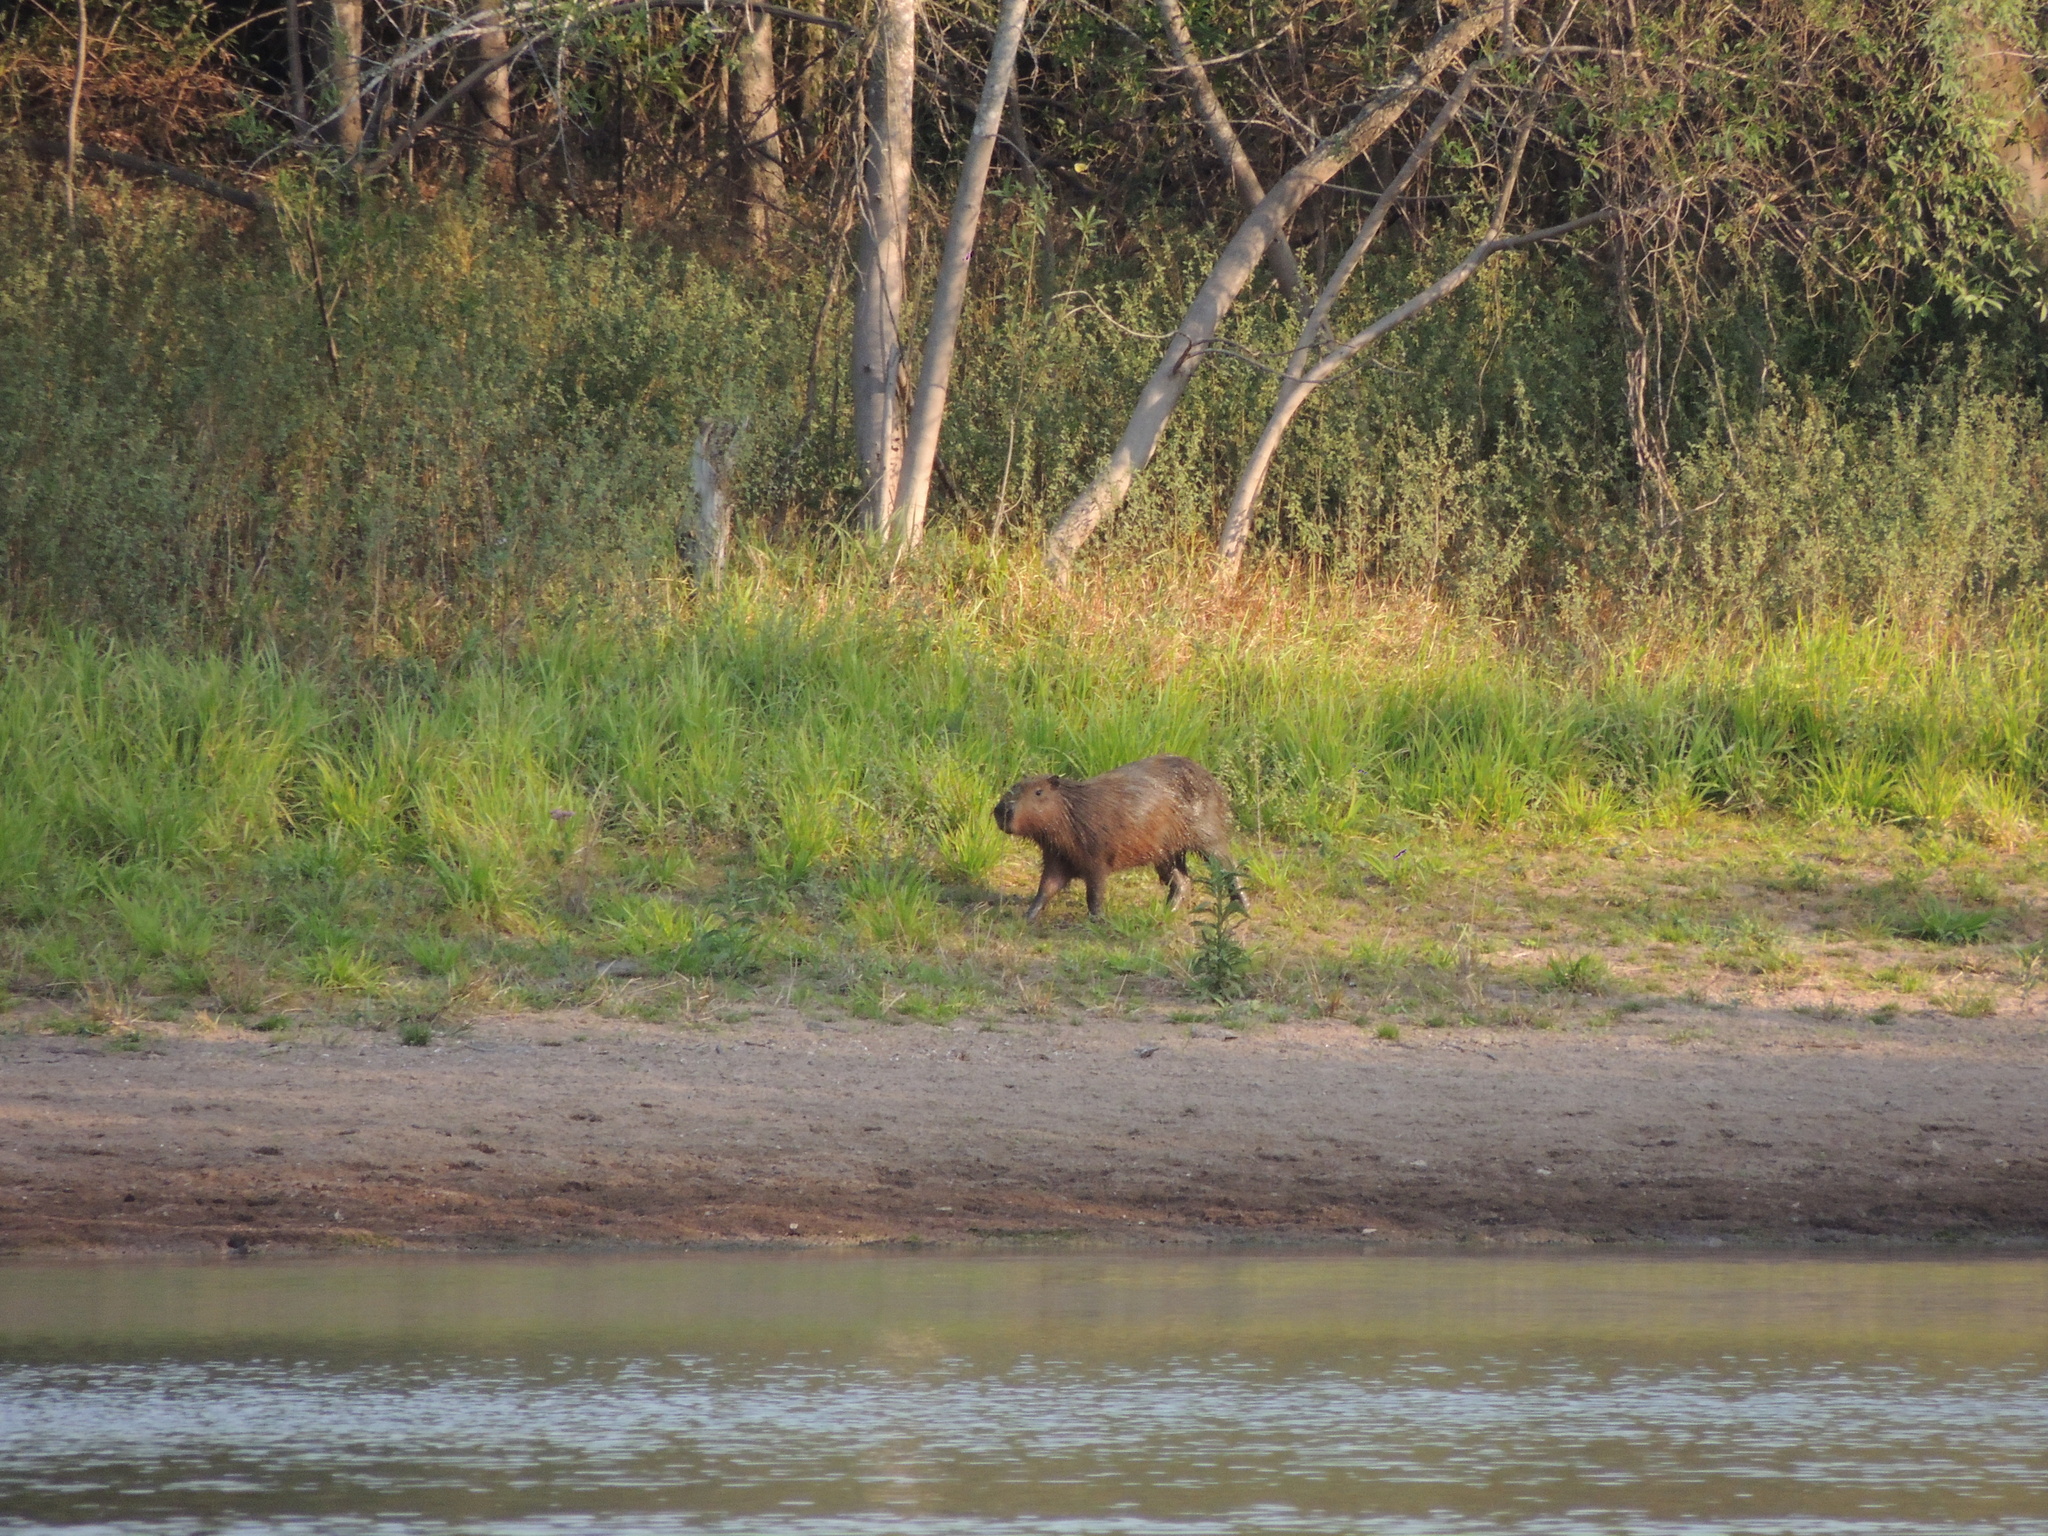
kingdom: Animalia
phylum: Chordata
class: Mammalia
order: Rodentia
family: Caviidae
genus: Hydrochoerus
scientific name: Hydrochoerus hydrochaeris
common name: Capybara
